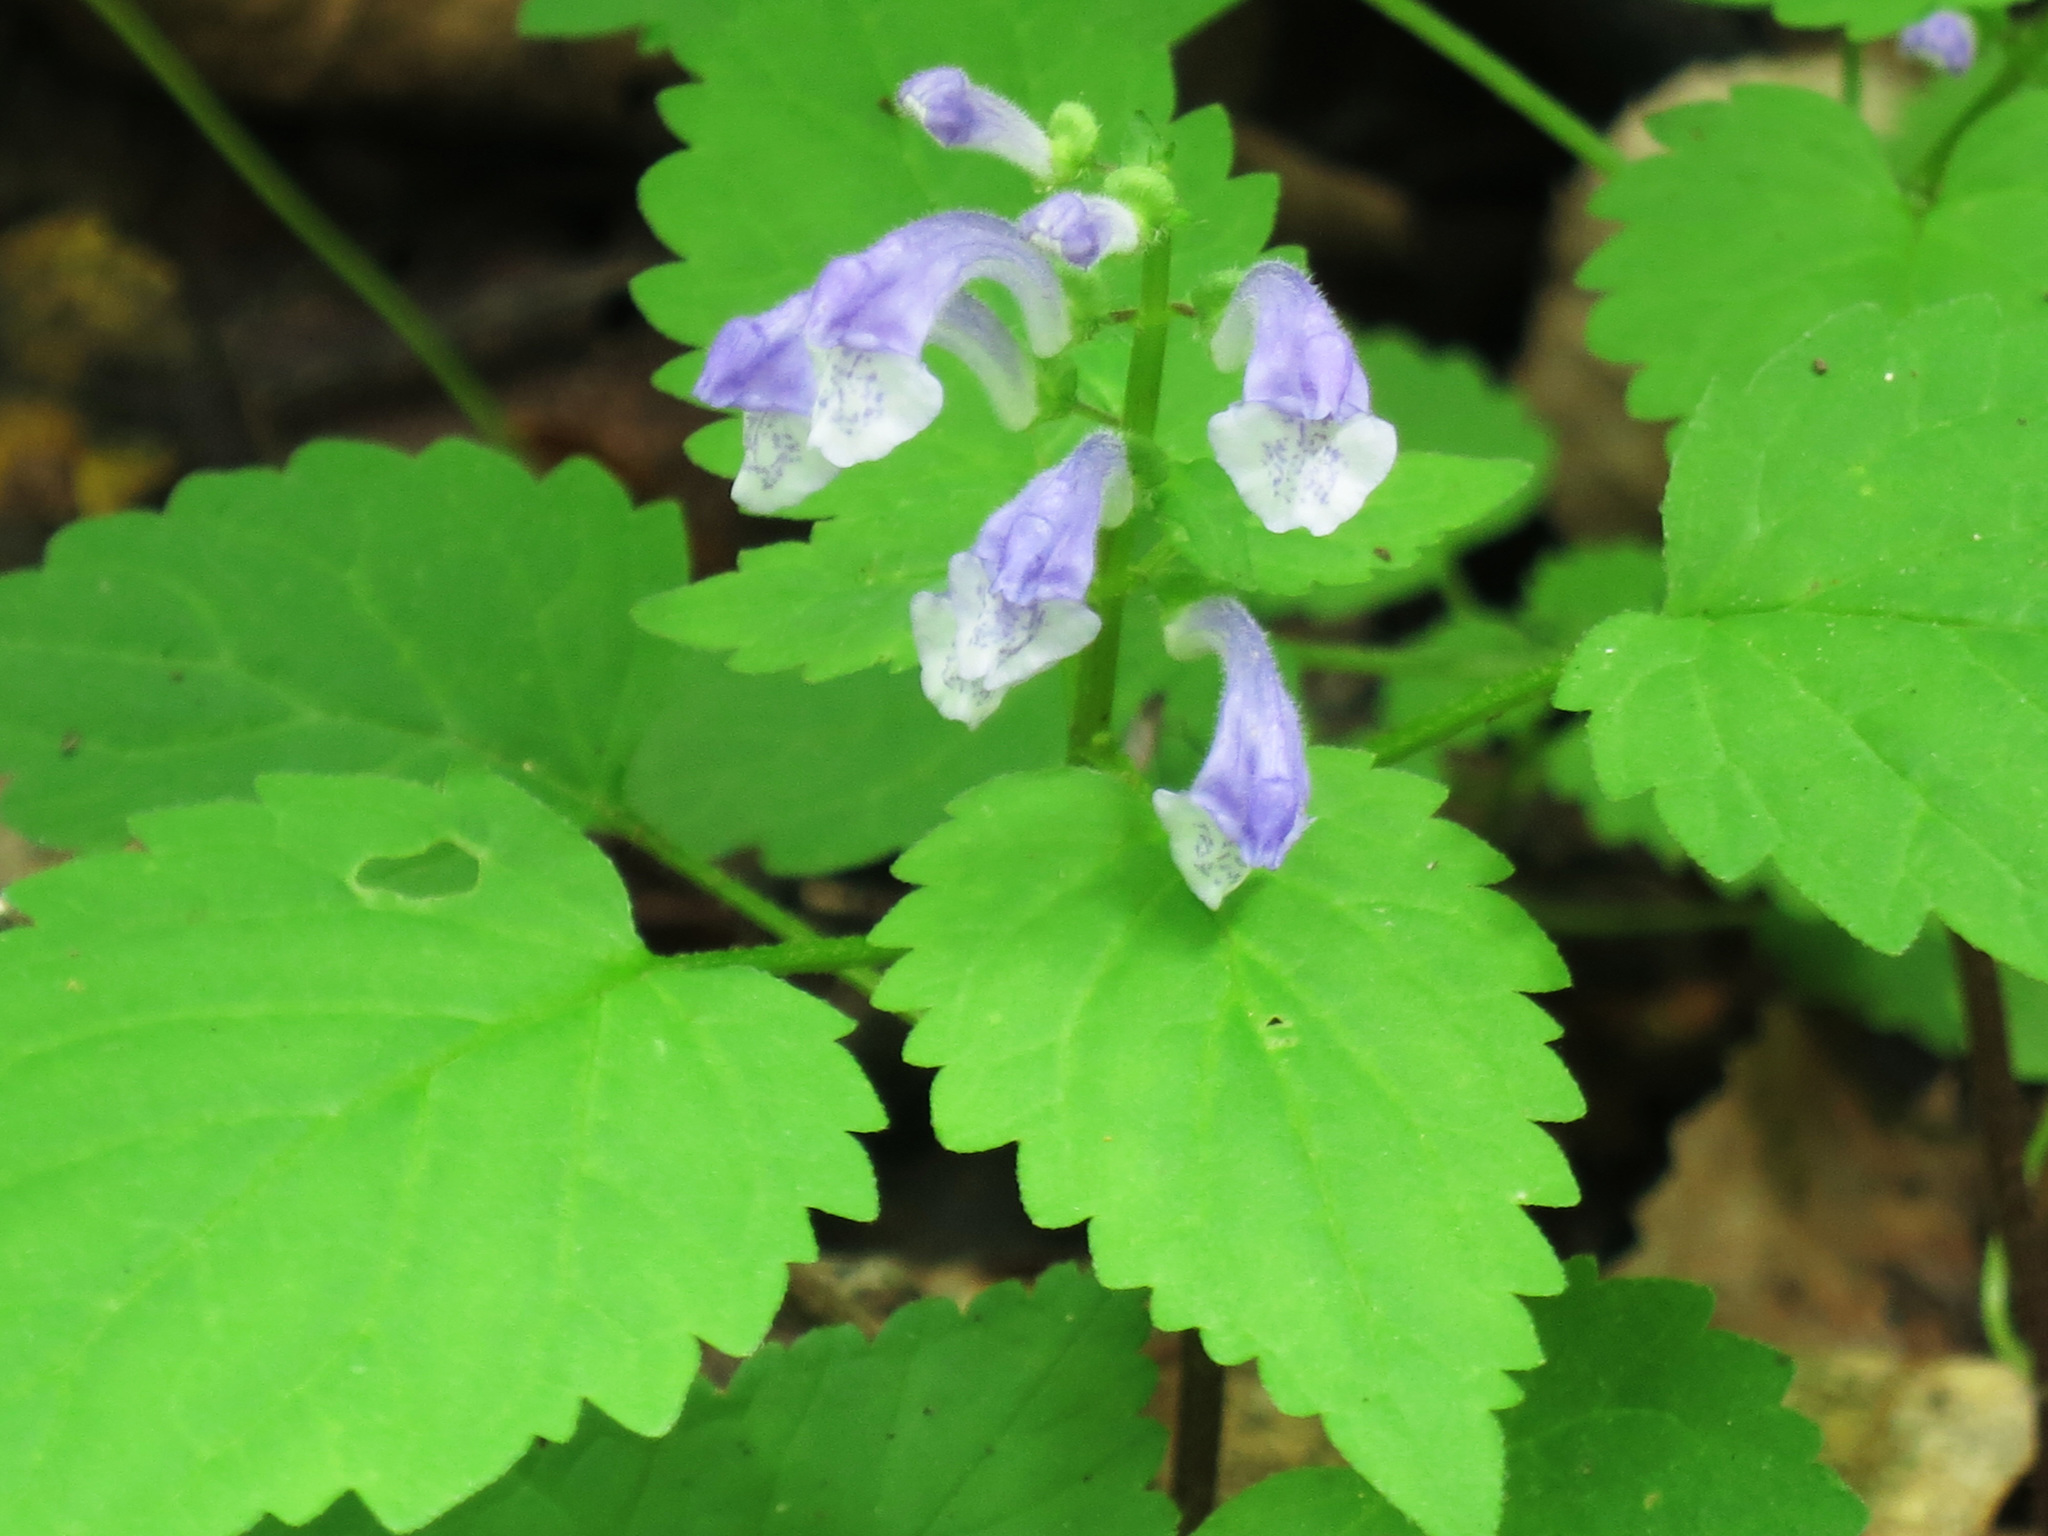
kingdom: Plantae
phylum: Tracheophyta
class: Magnoliopsida
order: Lamiales
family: Lamiaceae
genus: Scutellaria
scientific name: Scutellaria pekinensis
